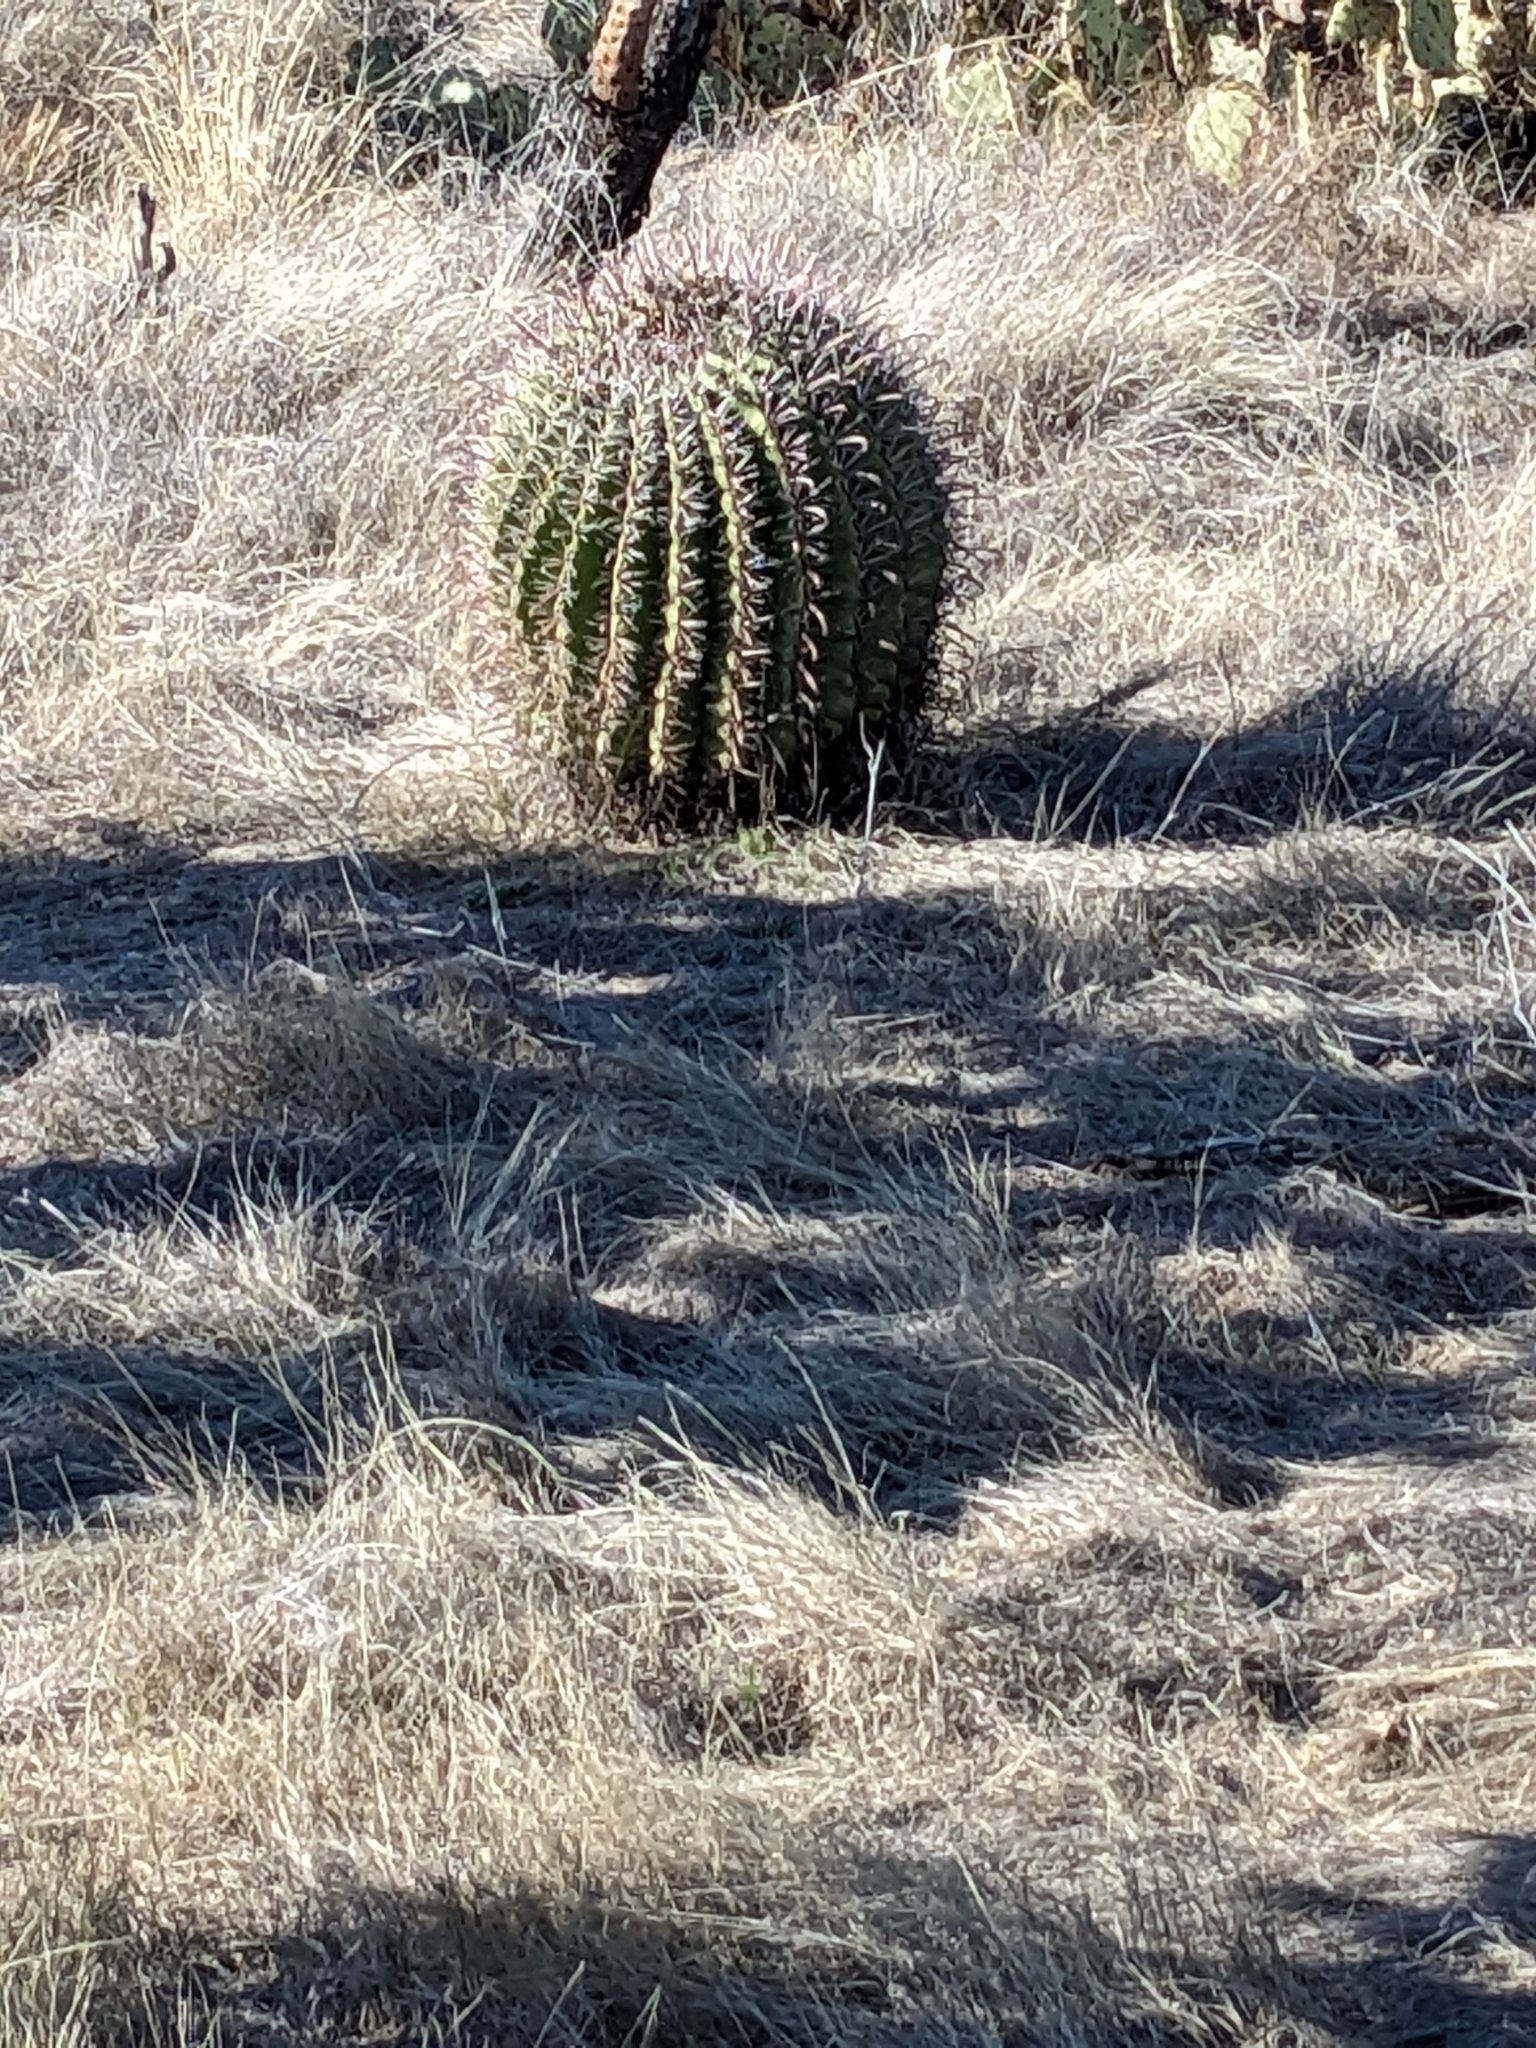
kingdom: Plantae
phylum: Tracheophyta
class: Magnoliopsida
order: Caryophyllales
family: Cactaceae
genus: Ferocactus
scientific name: Ferocactus wislizeni
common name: Candy barrel cactus
